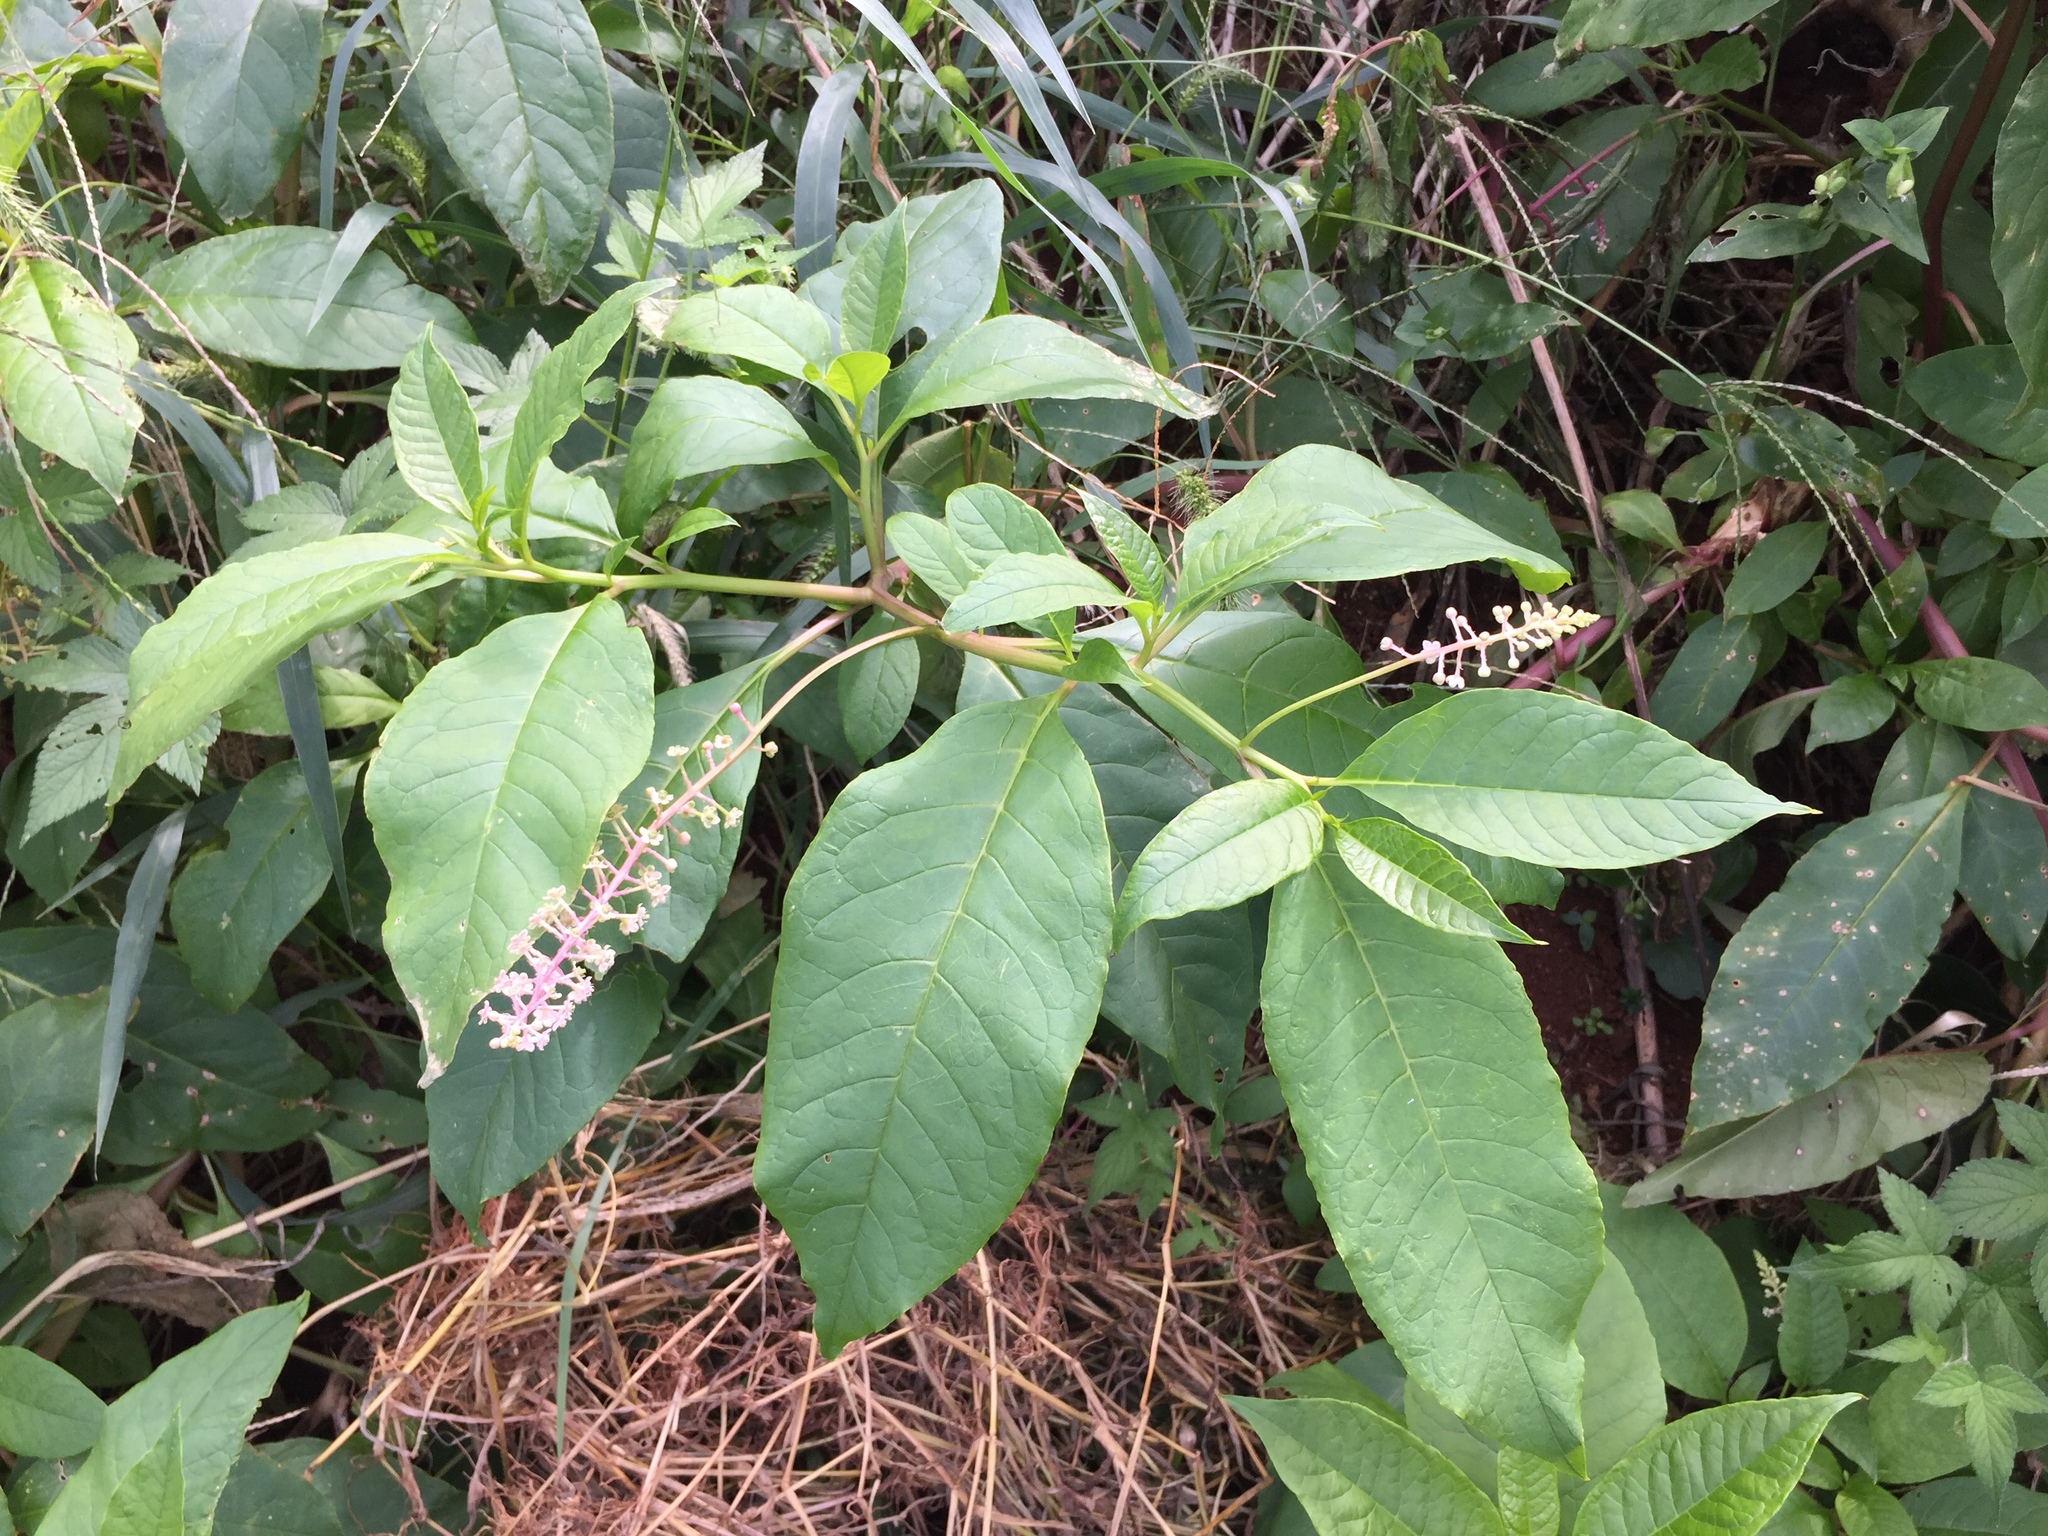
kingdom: Plantae
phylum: Tracheophyta
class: Magnoliopsida
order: Caryophyllales
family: Phytolaccaceae
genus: Phytolacca
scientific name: Phytolacca americana
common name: American pokeweed
